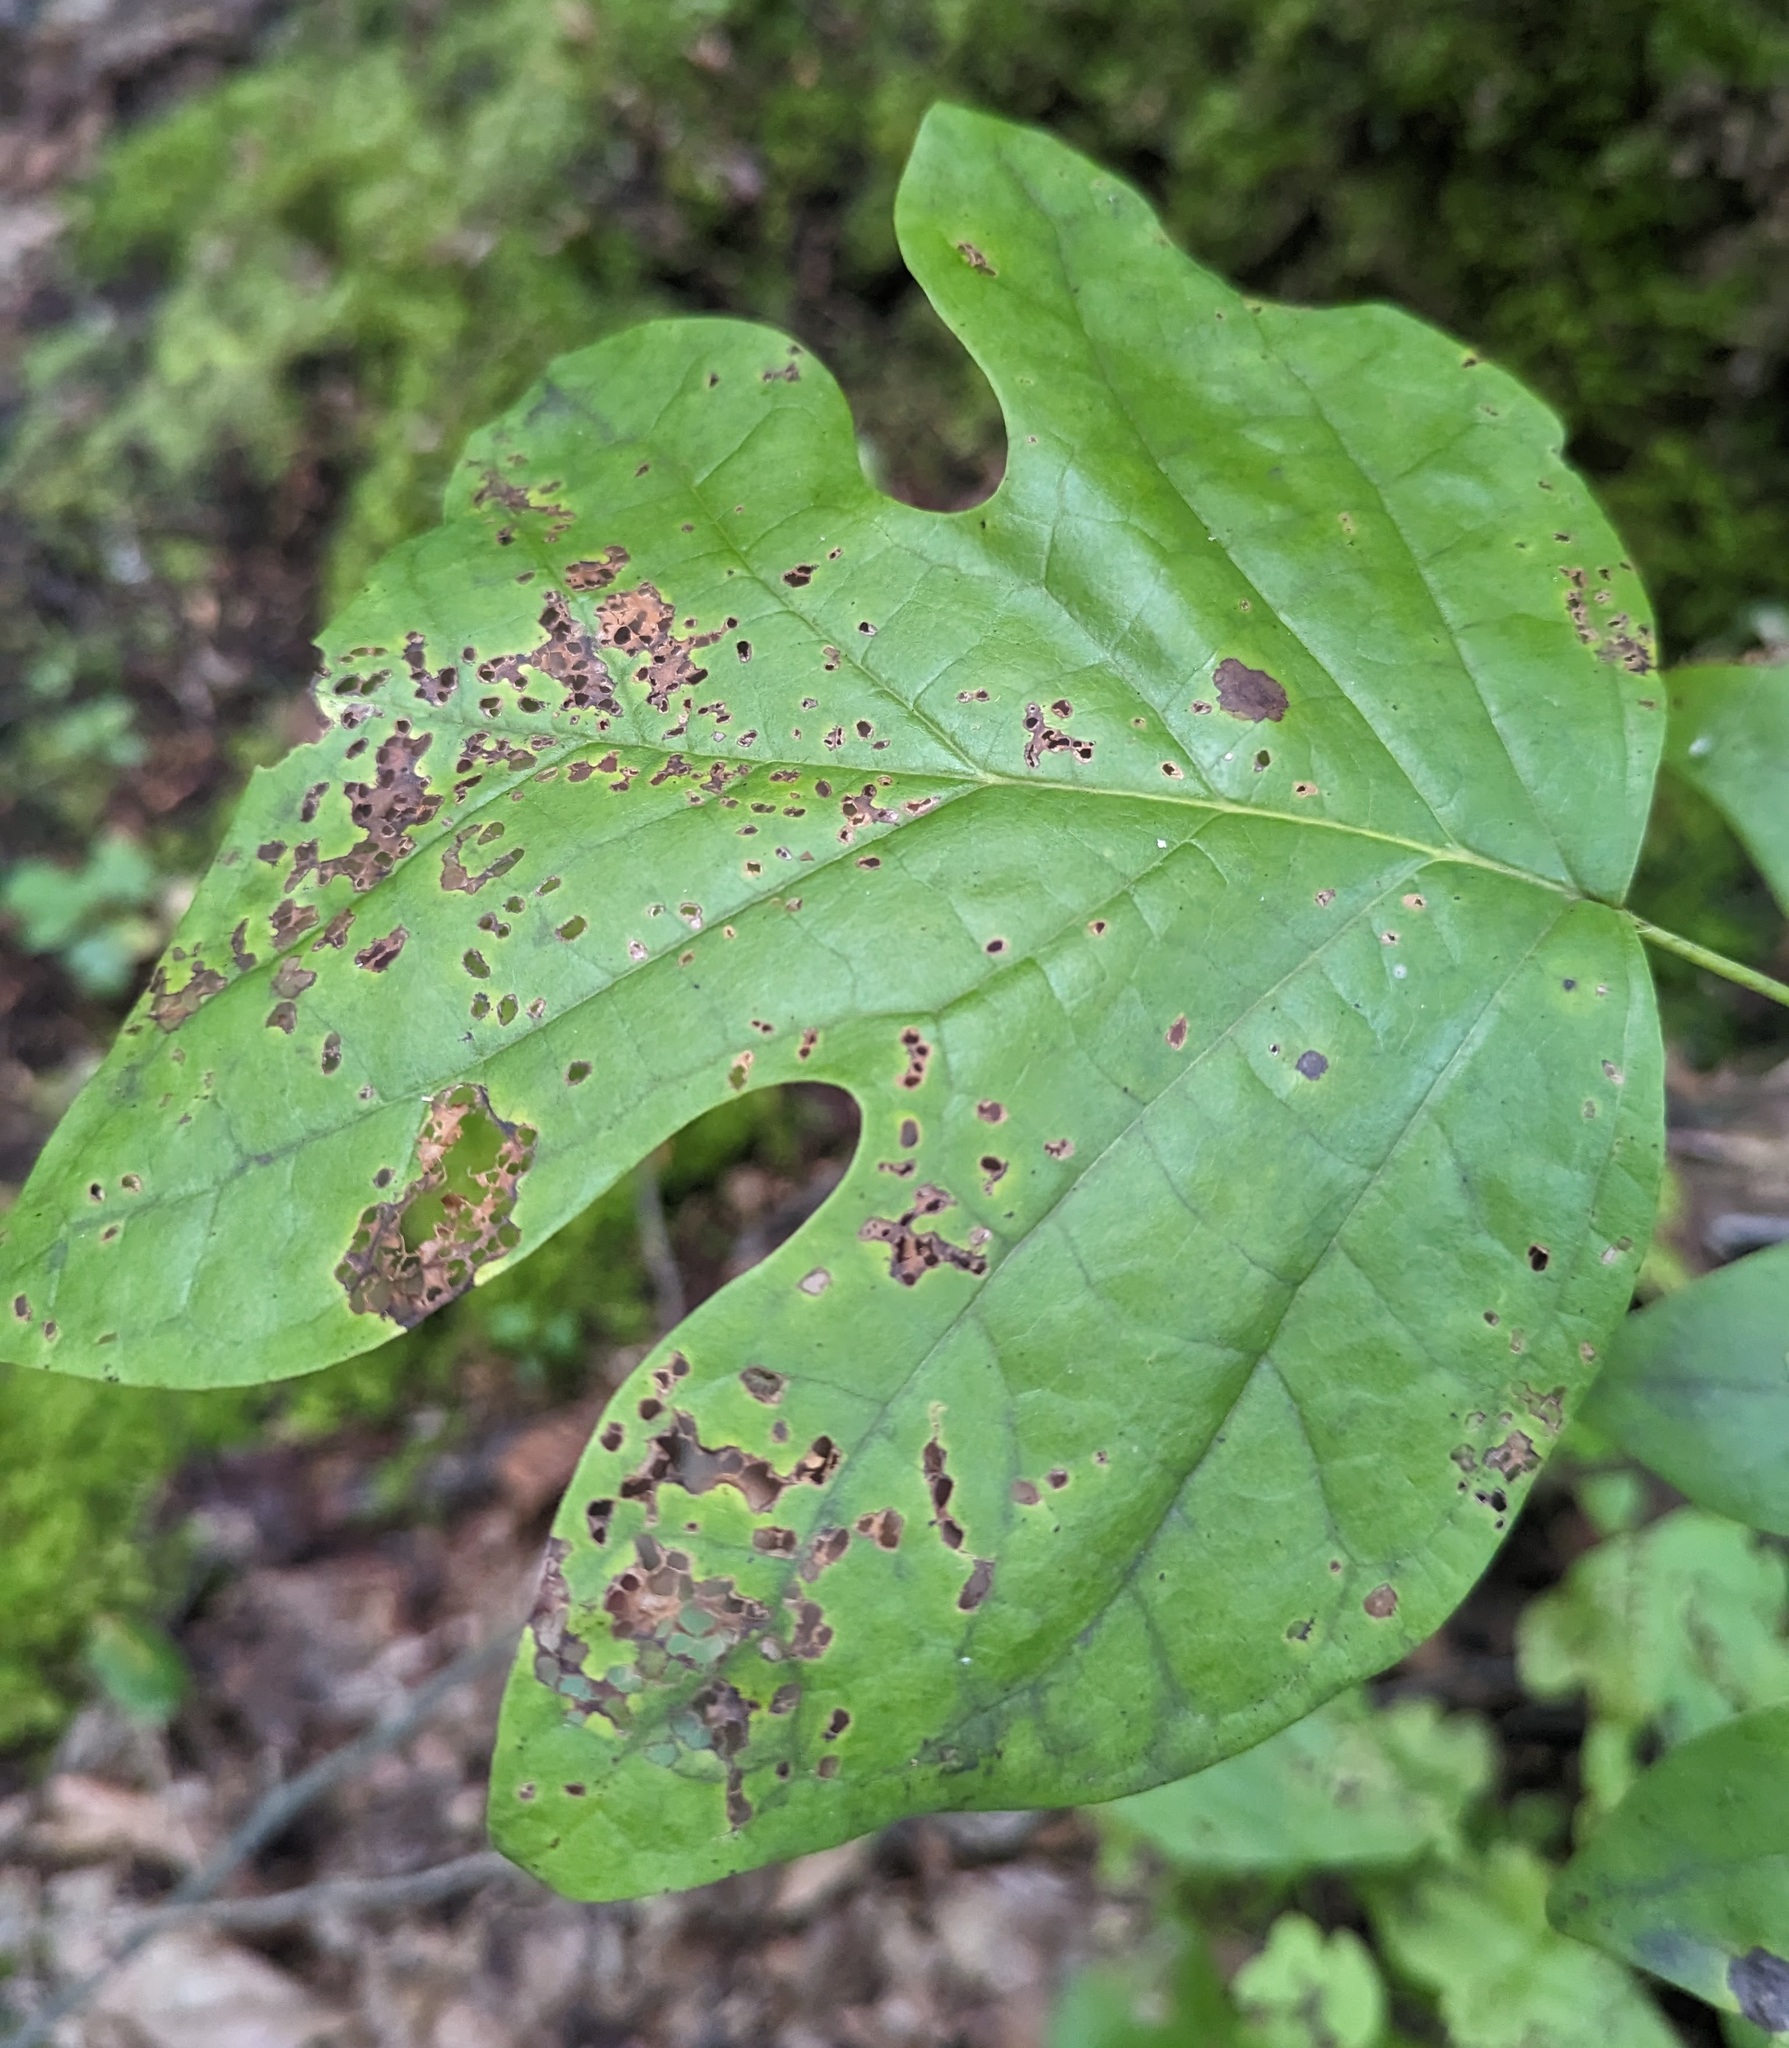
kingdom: Plantae
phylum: Tracheophyta
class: Magnoliopsida
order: Magnoliales
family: Magnoliaceae
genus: Liriodendron
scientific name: Liriodendron tulipifera
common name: Tulip tree
